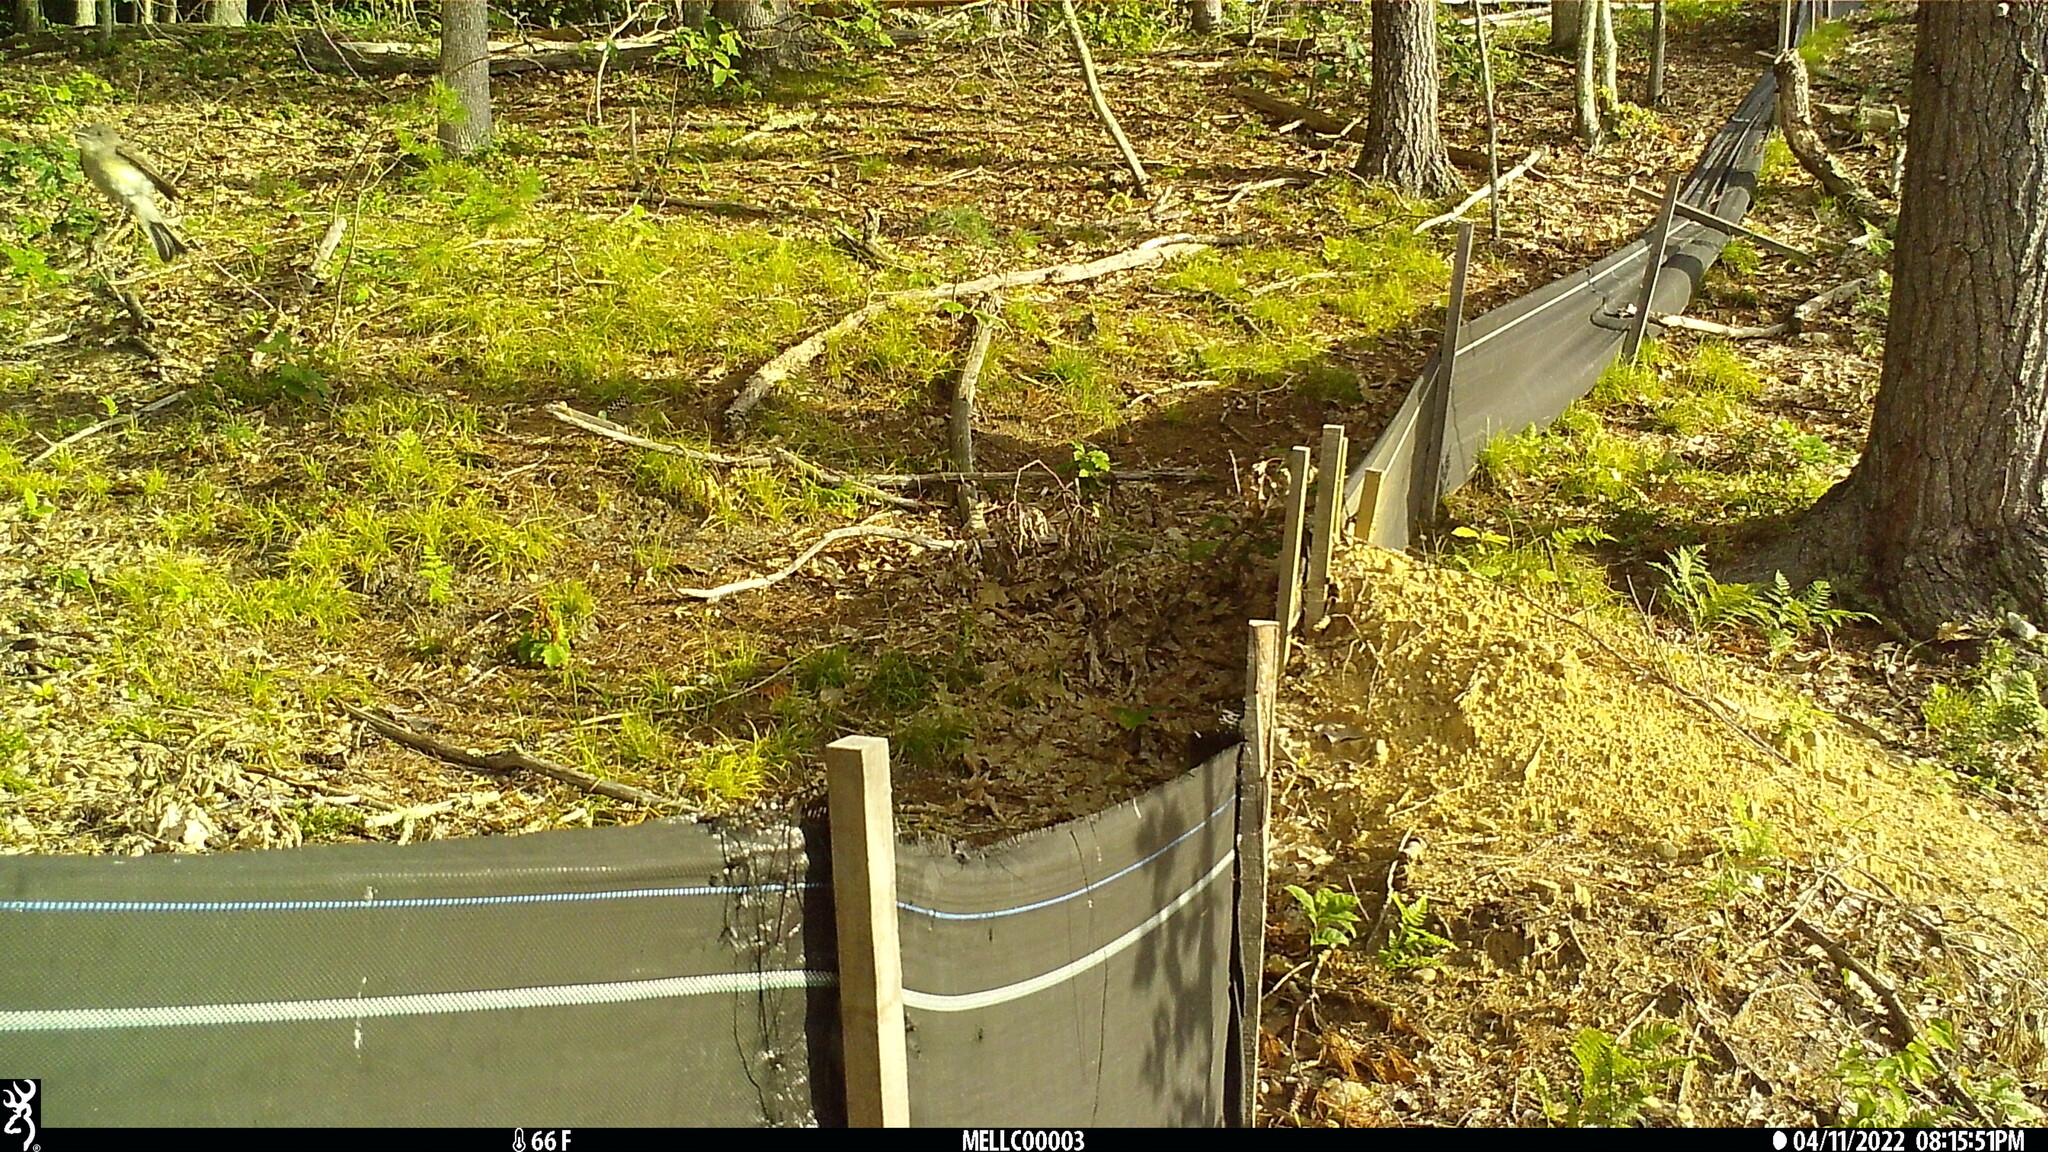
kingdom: Animalia
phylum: Chordata
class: Aves
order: Passeriformes
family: Tyrannidae
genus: Sayornis
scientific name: Sayornis phoebe
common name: Eastern phoebe
